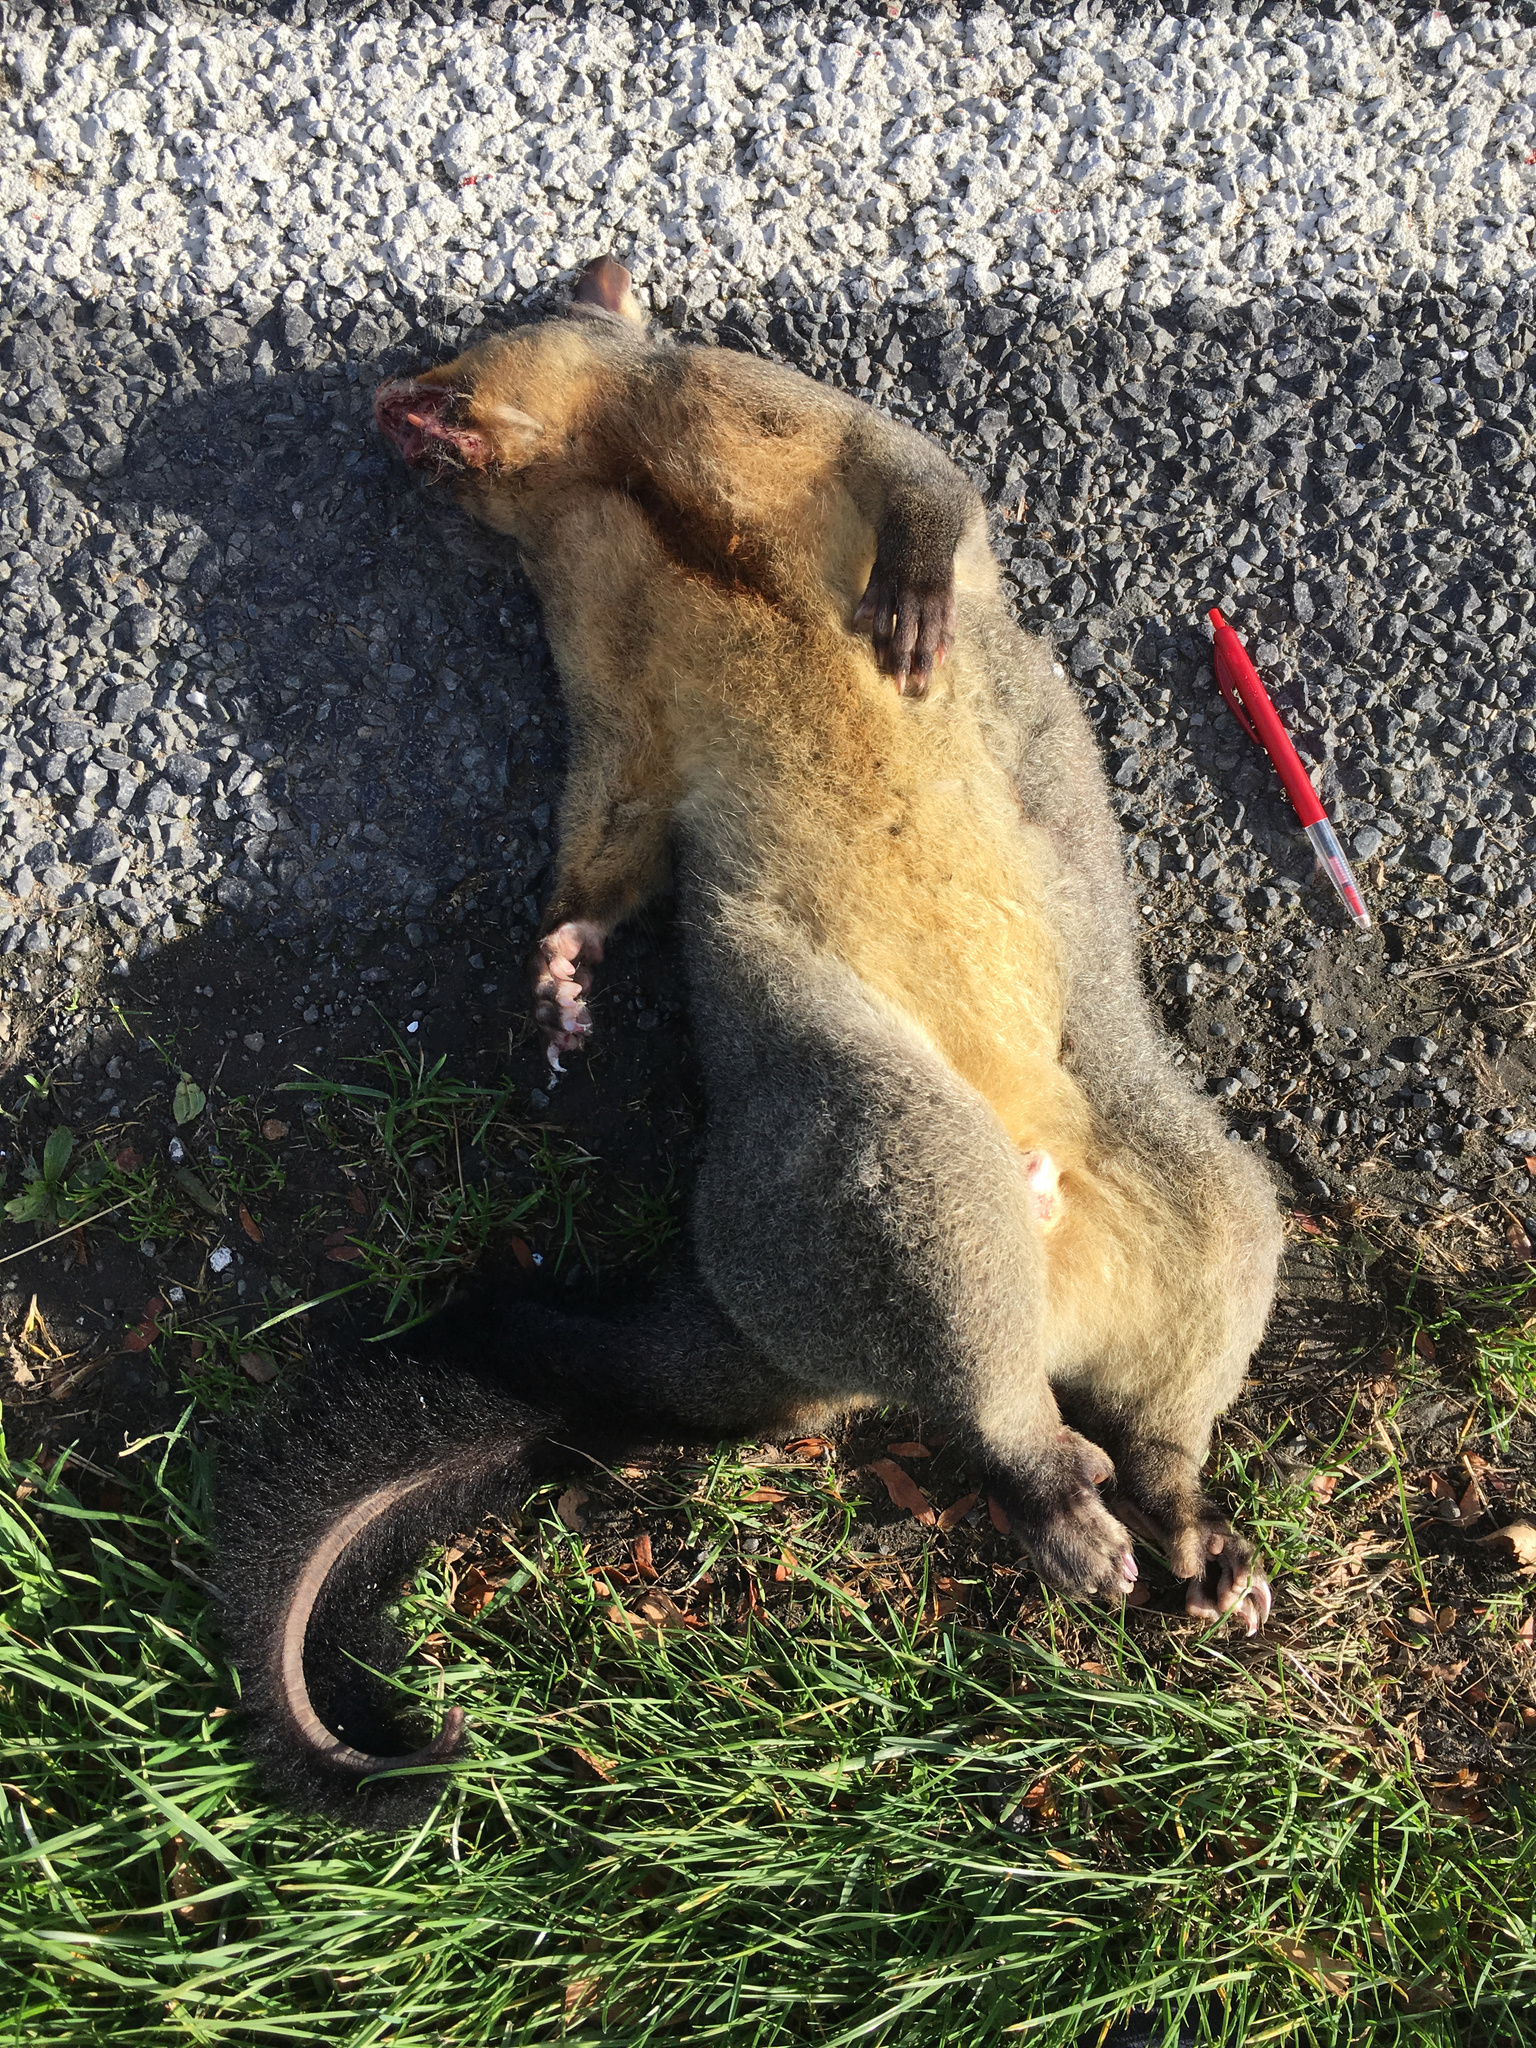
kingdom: Animalia
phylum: Chordata
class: Mammalia
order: Diprotodontia
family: Phalangeridae
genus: Trichosurus
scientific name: Trichosurus vulpecula
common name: Common brushtail
